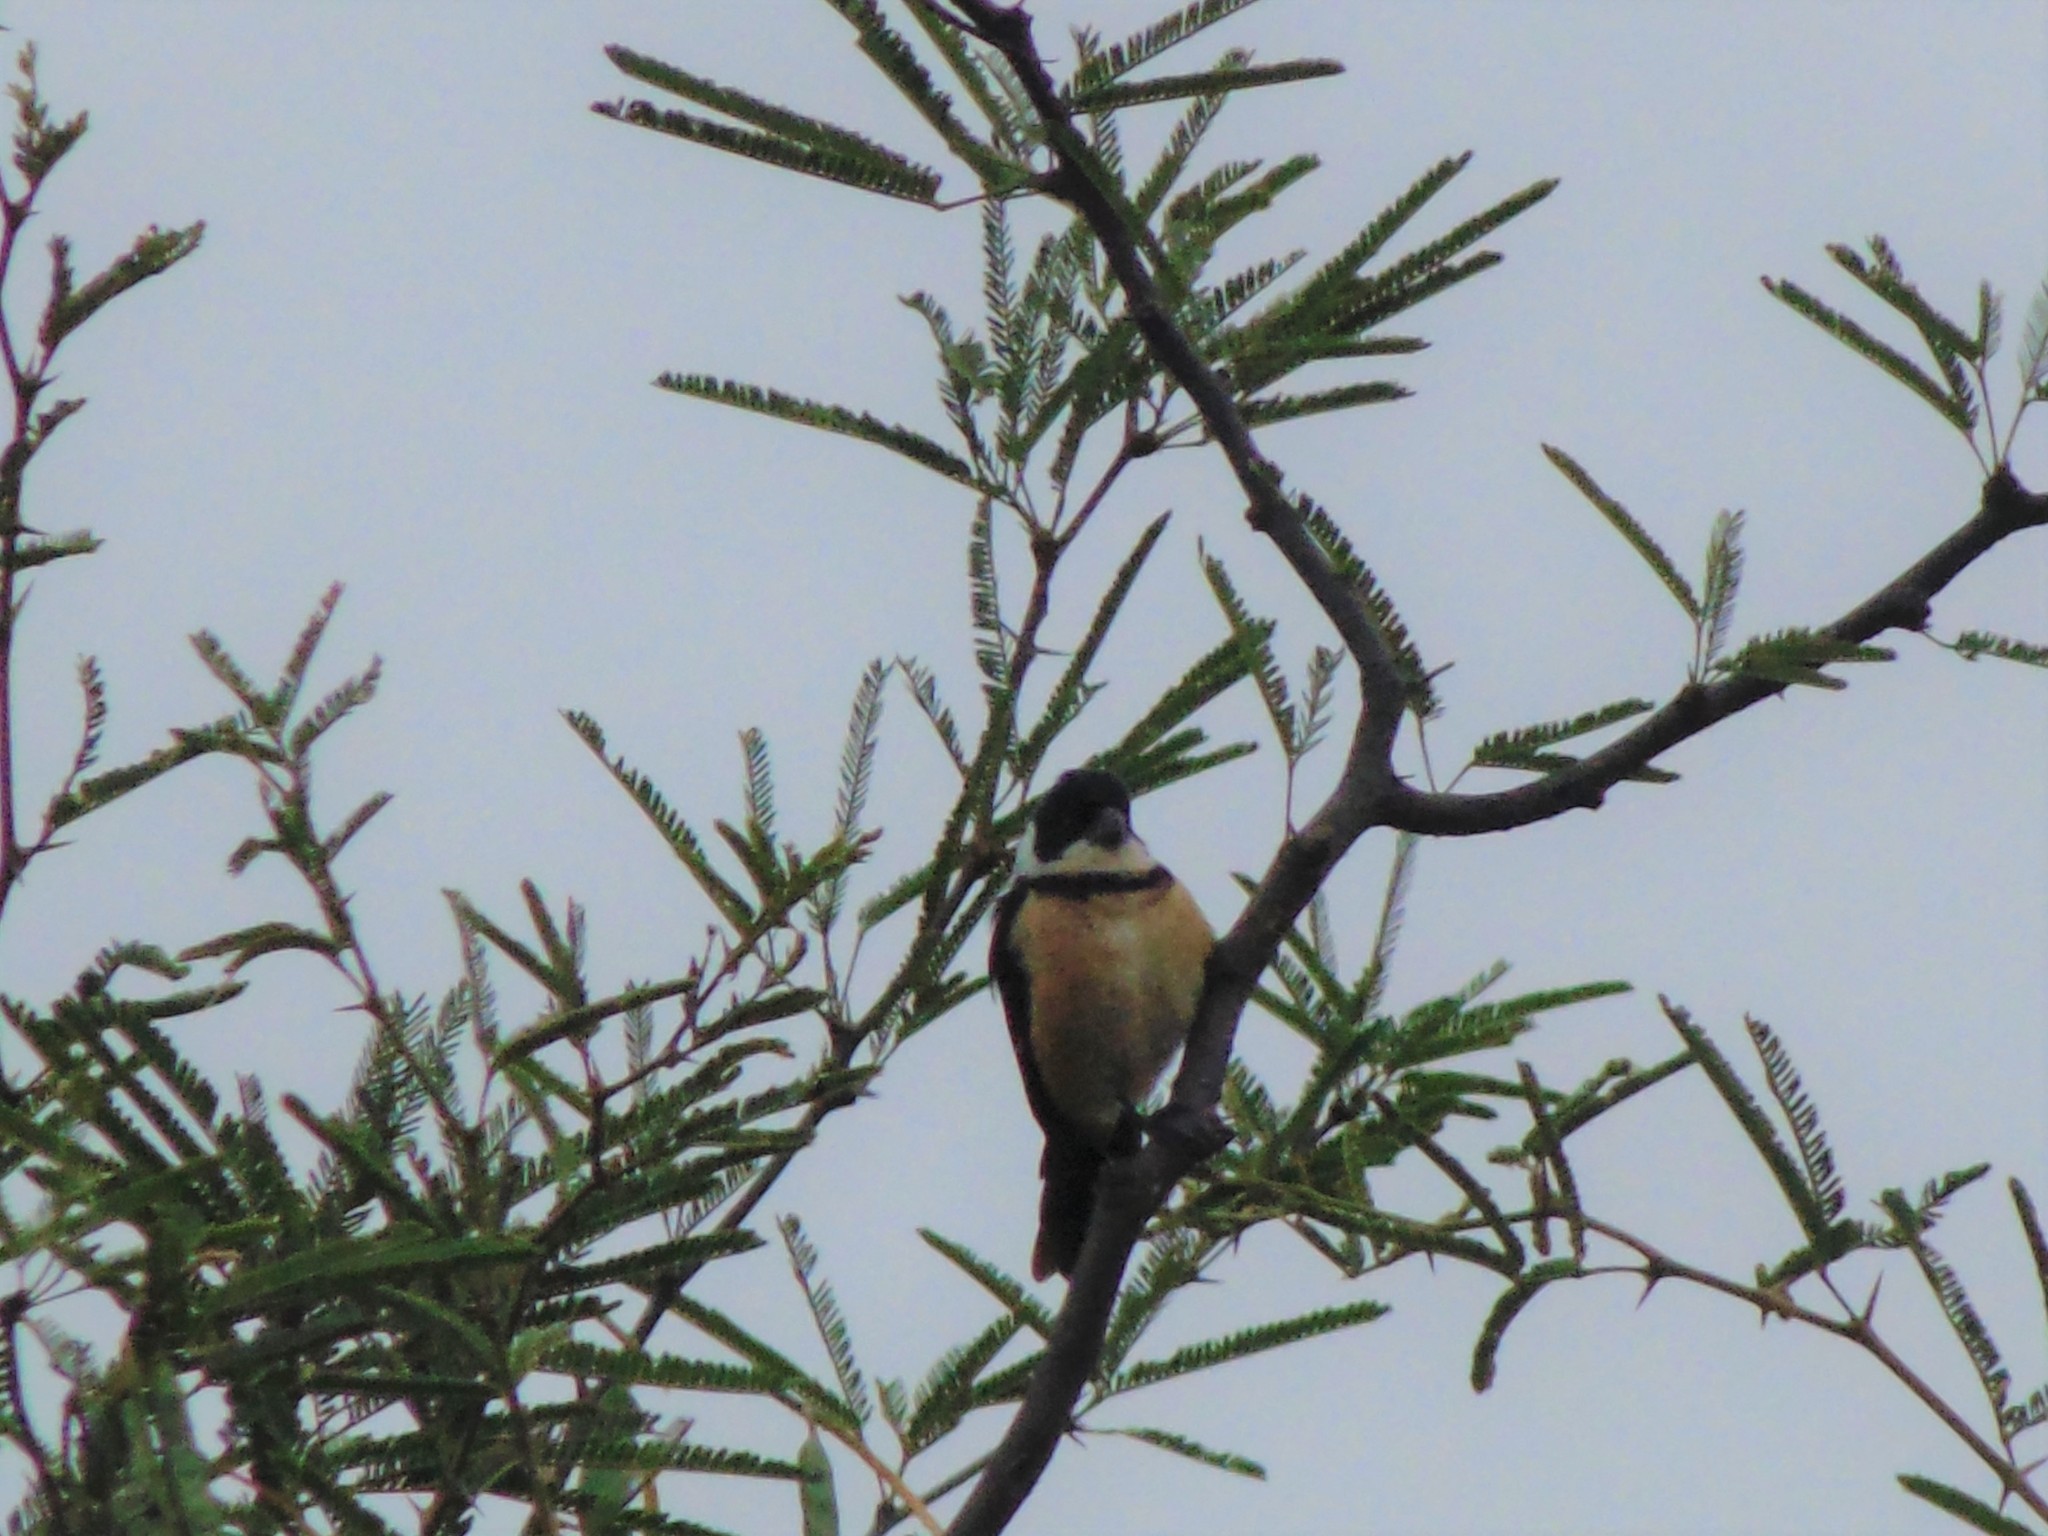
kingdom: Animalia
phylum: Chordata
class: Aves
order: Passeriformes
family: Thraupidae
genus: Sporophila
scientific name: Sporophila torqueola
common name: White-collared seedeater
